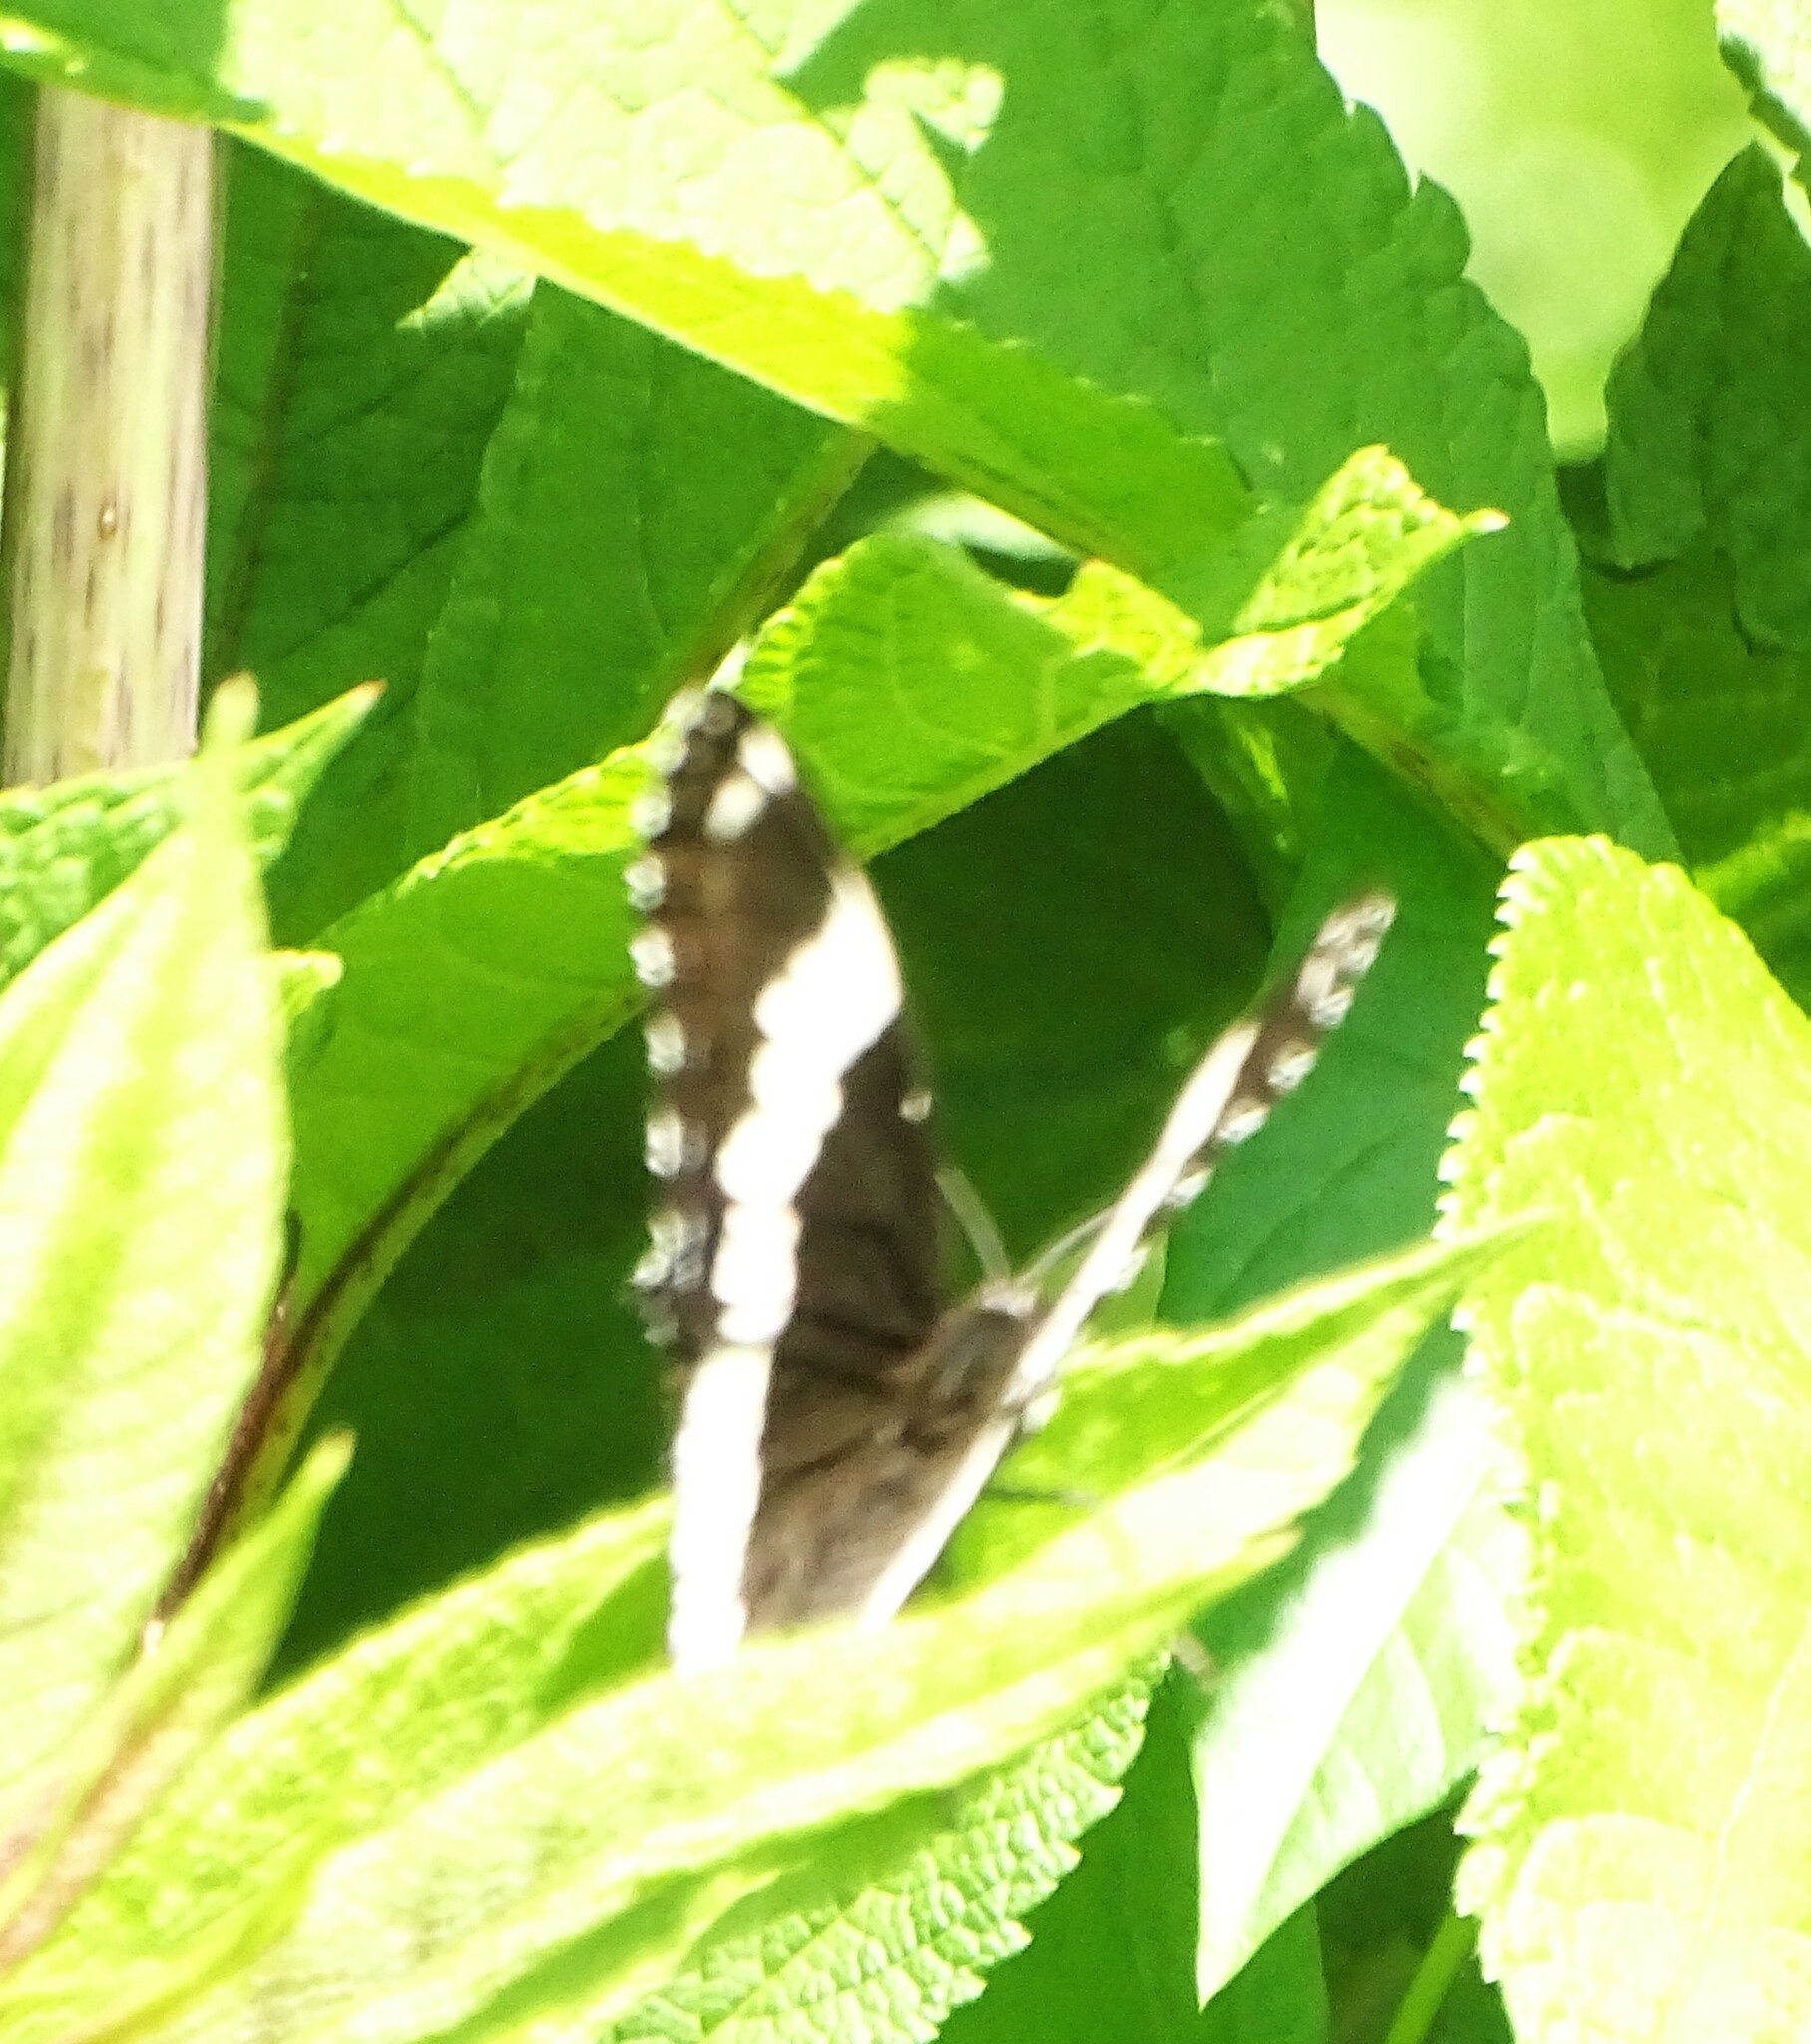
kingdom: Animalia
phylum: Arthropoda
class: Insecta
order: Lepidoptera
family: Nymphalidae
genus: Limenitis
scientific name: Limenitis arthemis
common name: Red-spotted admiral
